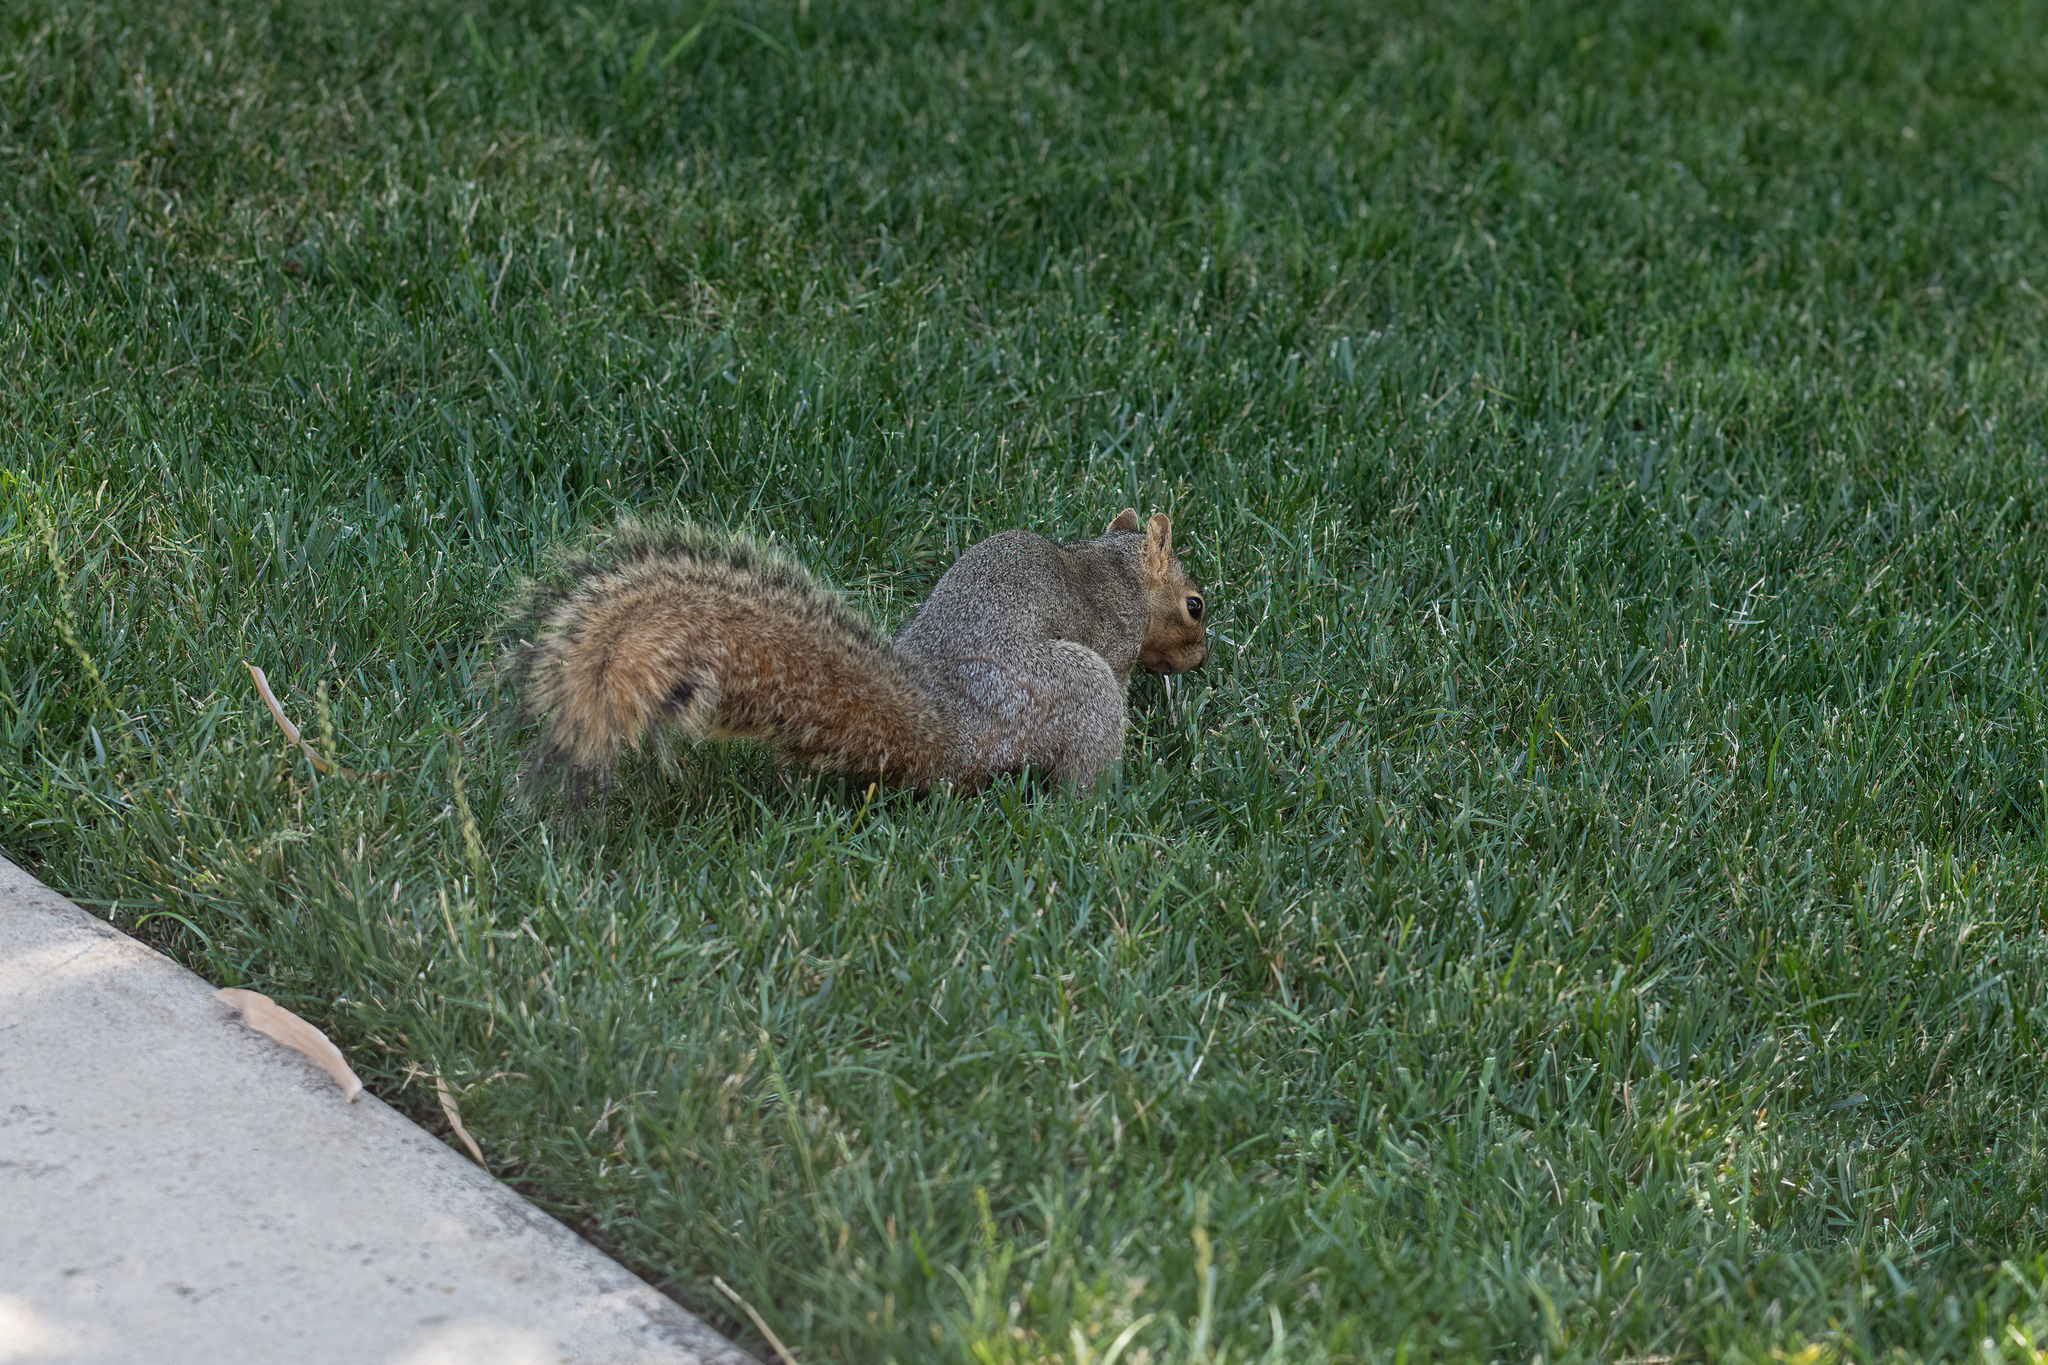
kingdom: Animalia
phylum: Chordata
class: Mammalia
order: Rodentia
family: Sciuridae
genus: Sciurus
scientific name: Sciurus niger
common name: Fox squirrel
